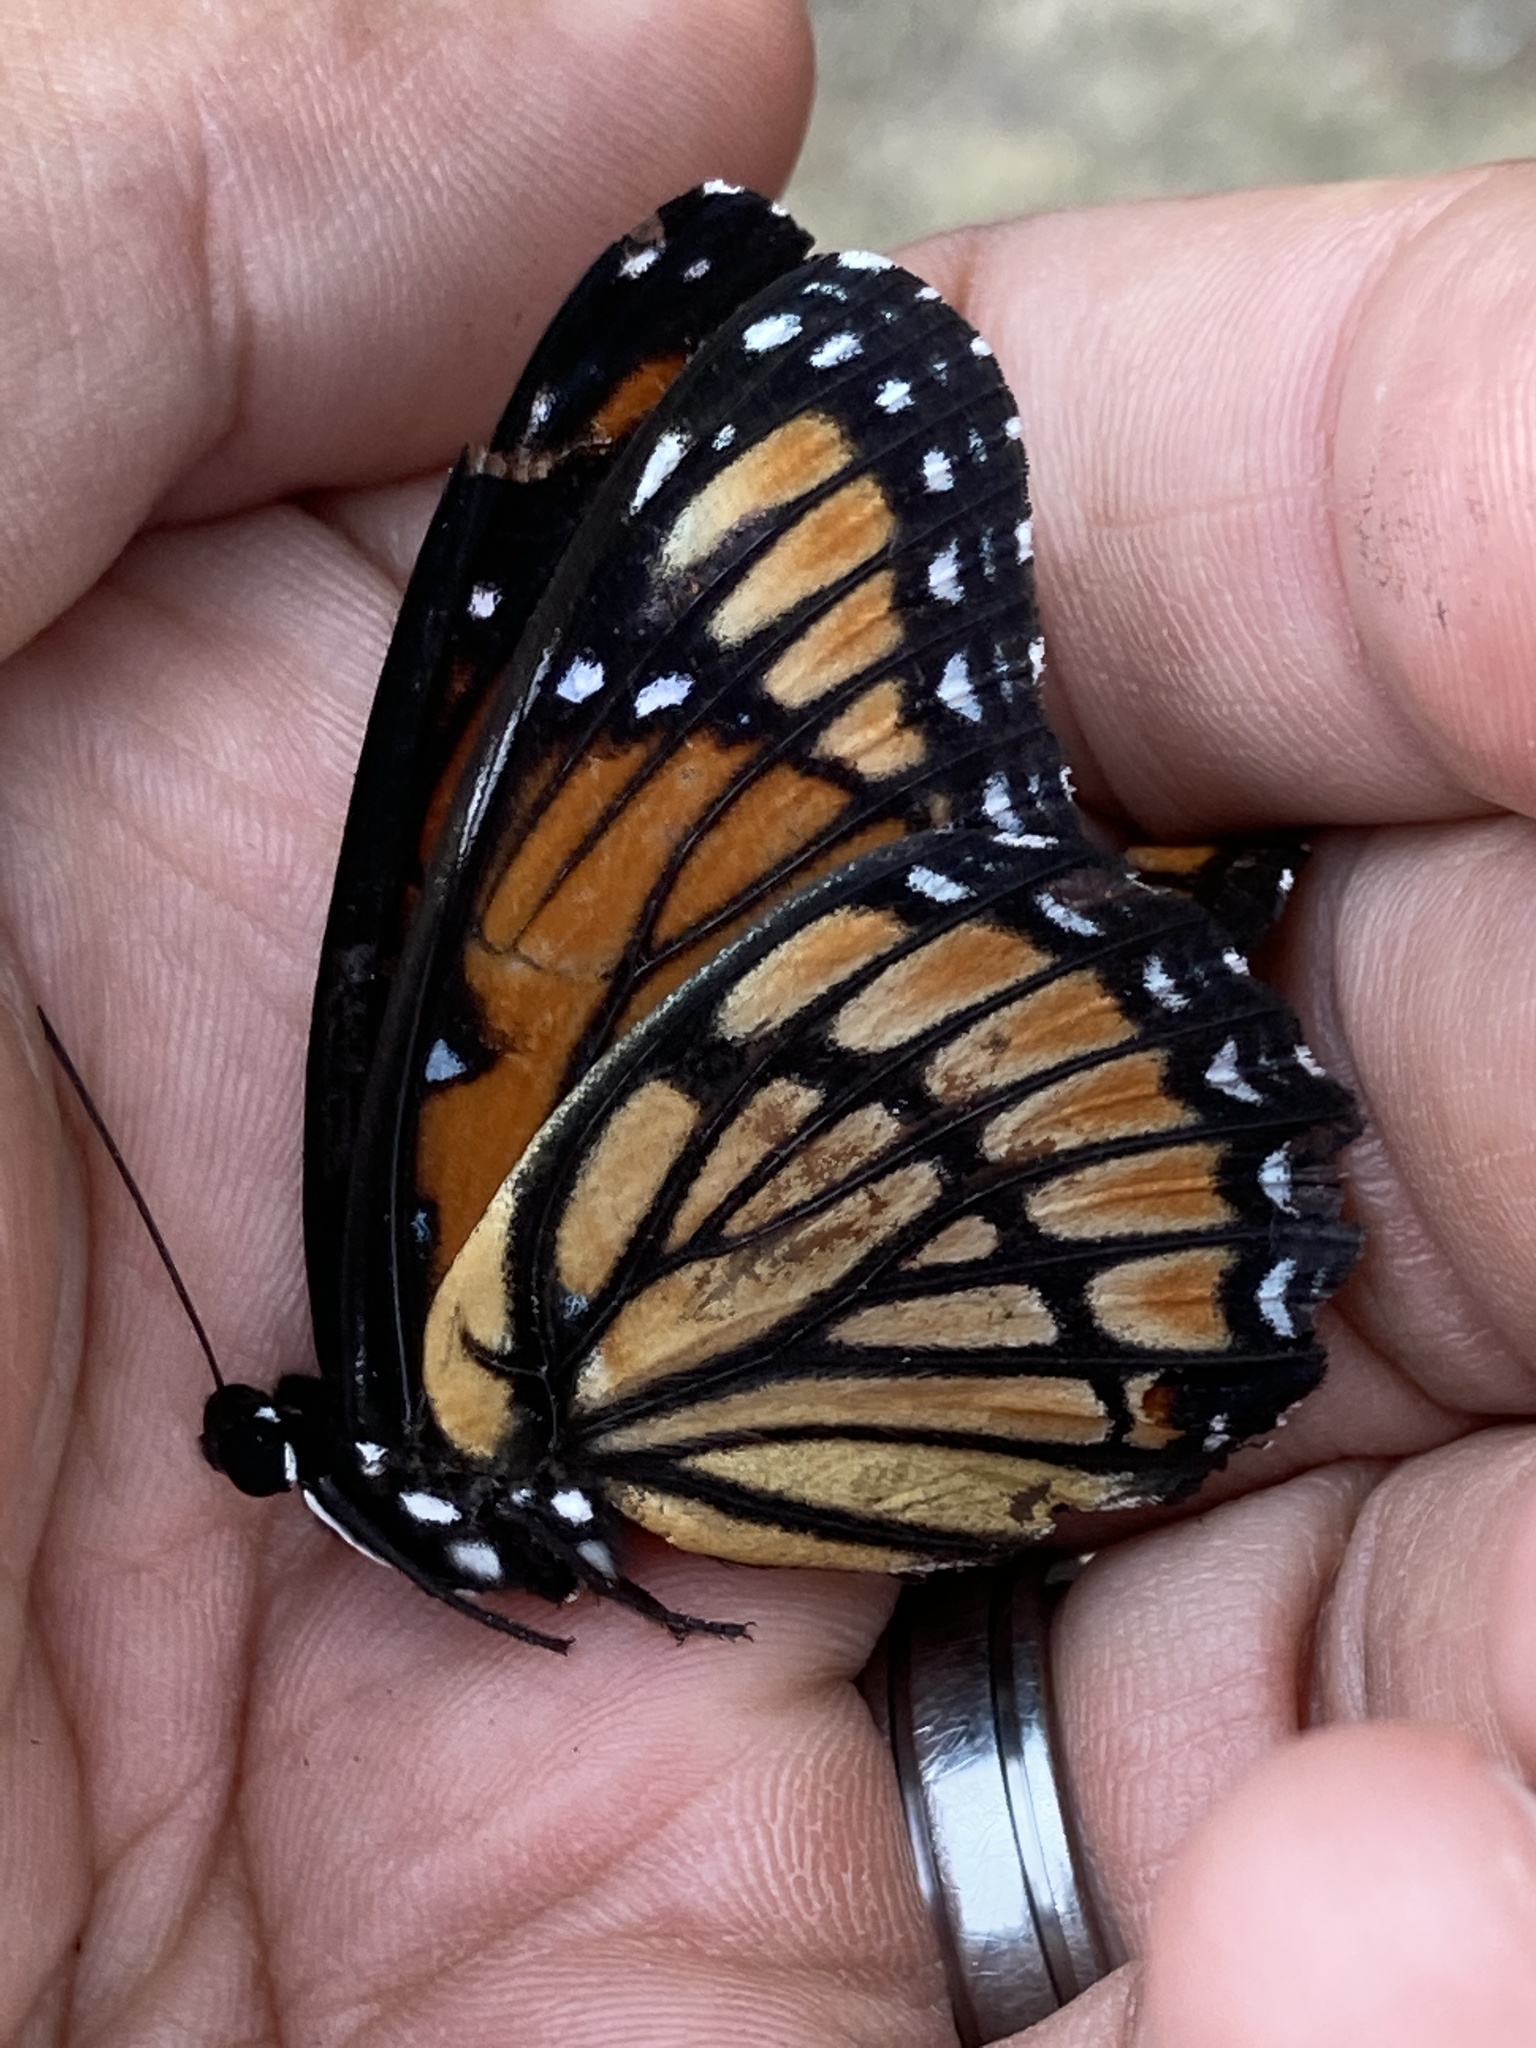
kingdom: Animalia
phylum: Arthropoda
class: Insecta
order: Lepidoptera
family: Nymphalidae
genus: Limenitis
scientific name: Limenitis archippus
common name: Viceroy
